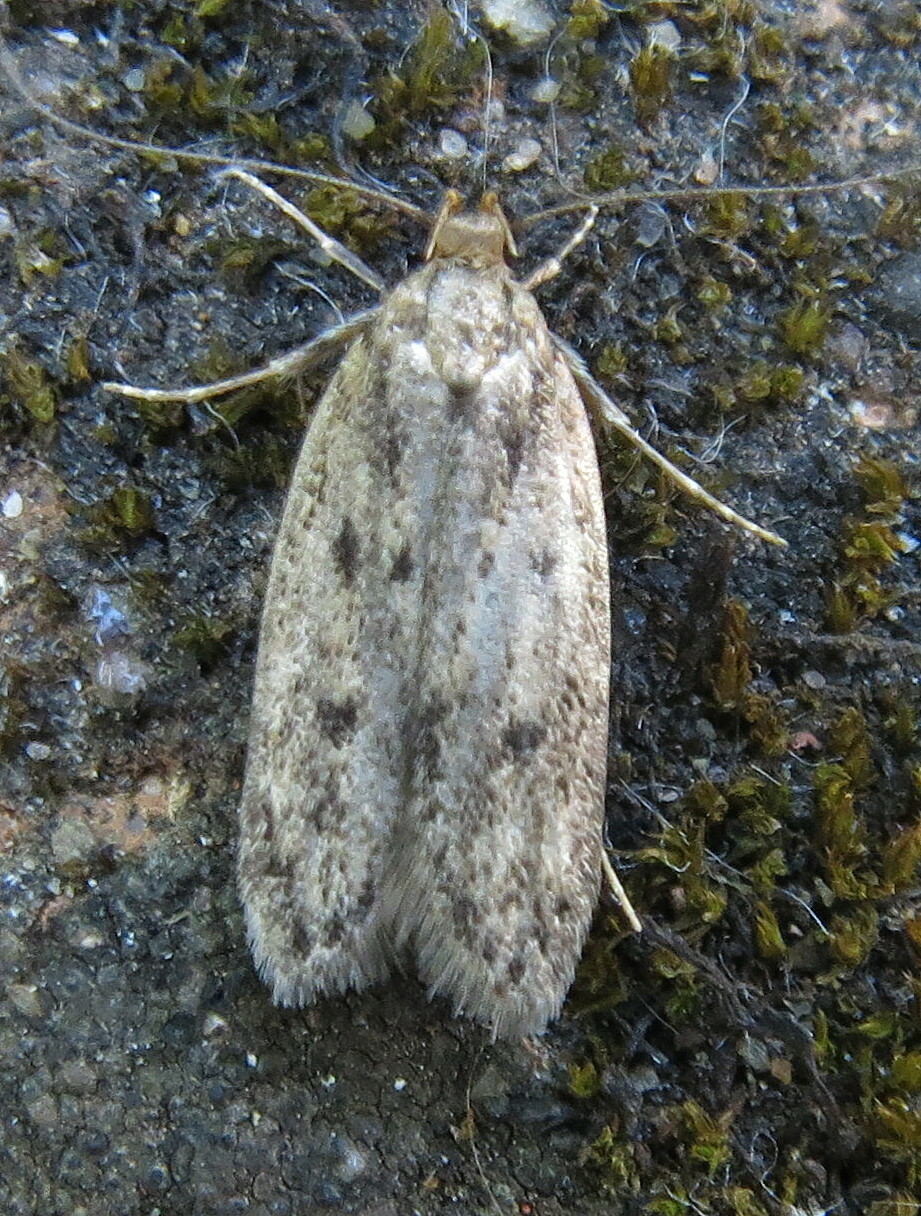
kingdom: Animalia
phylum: Arthropoda
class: Insecta
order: Lepidoptera
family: Oecophoridae
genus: Hofmannophila
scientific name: Hofmannophila pseudospretella
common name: Brown house moth
